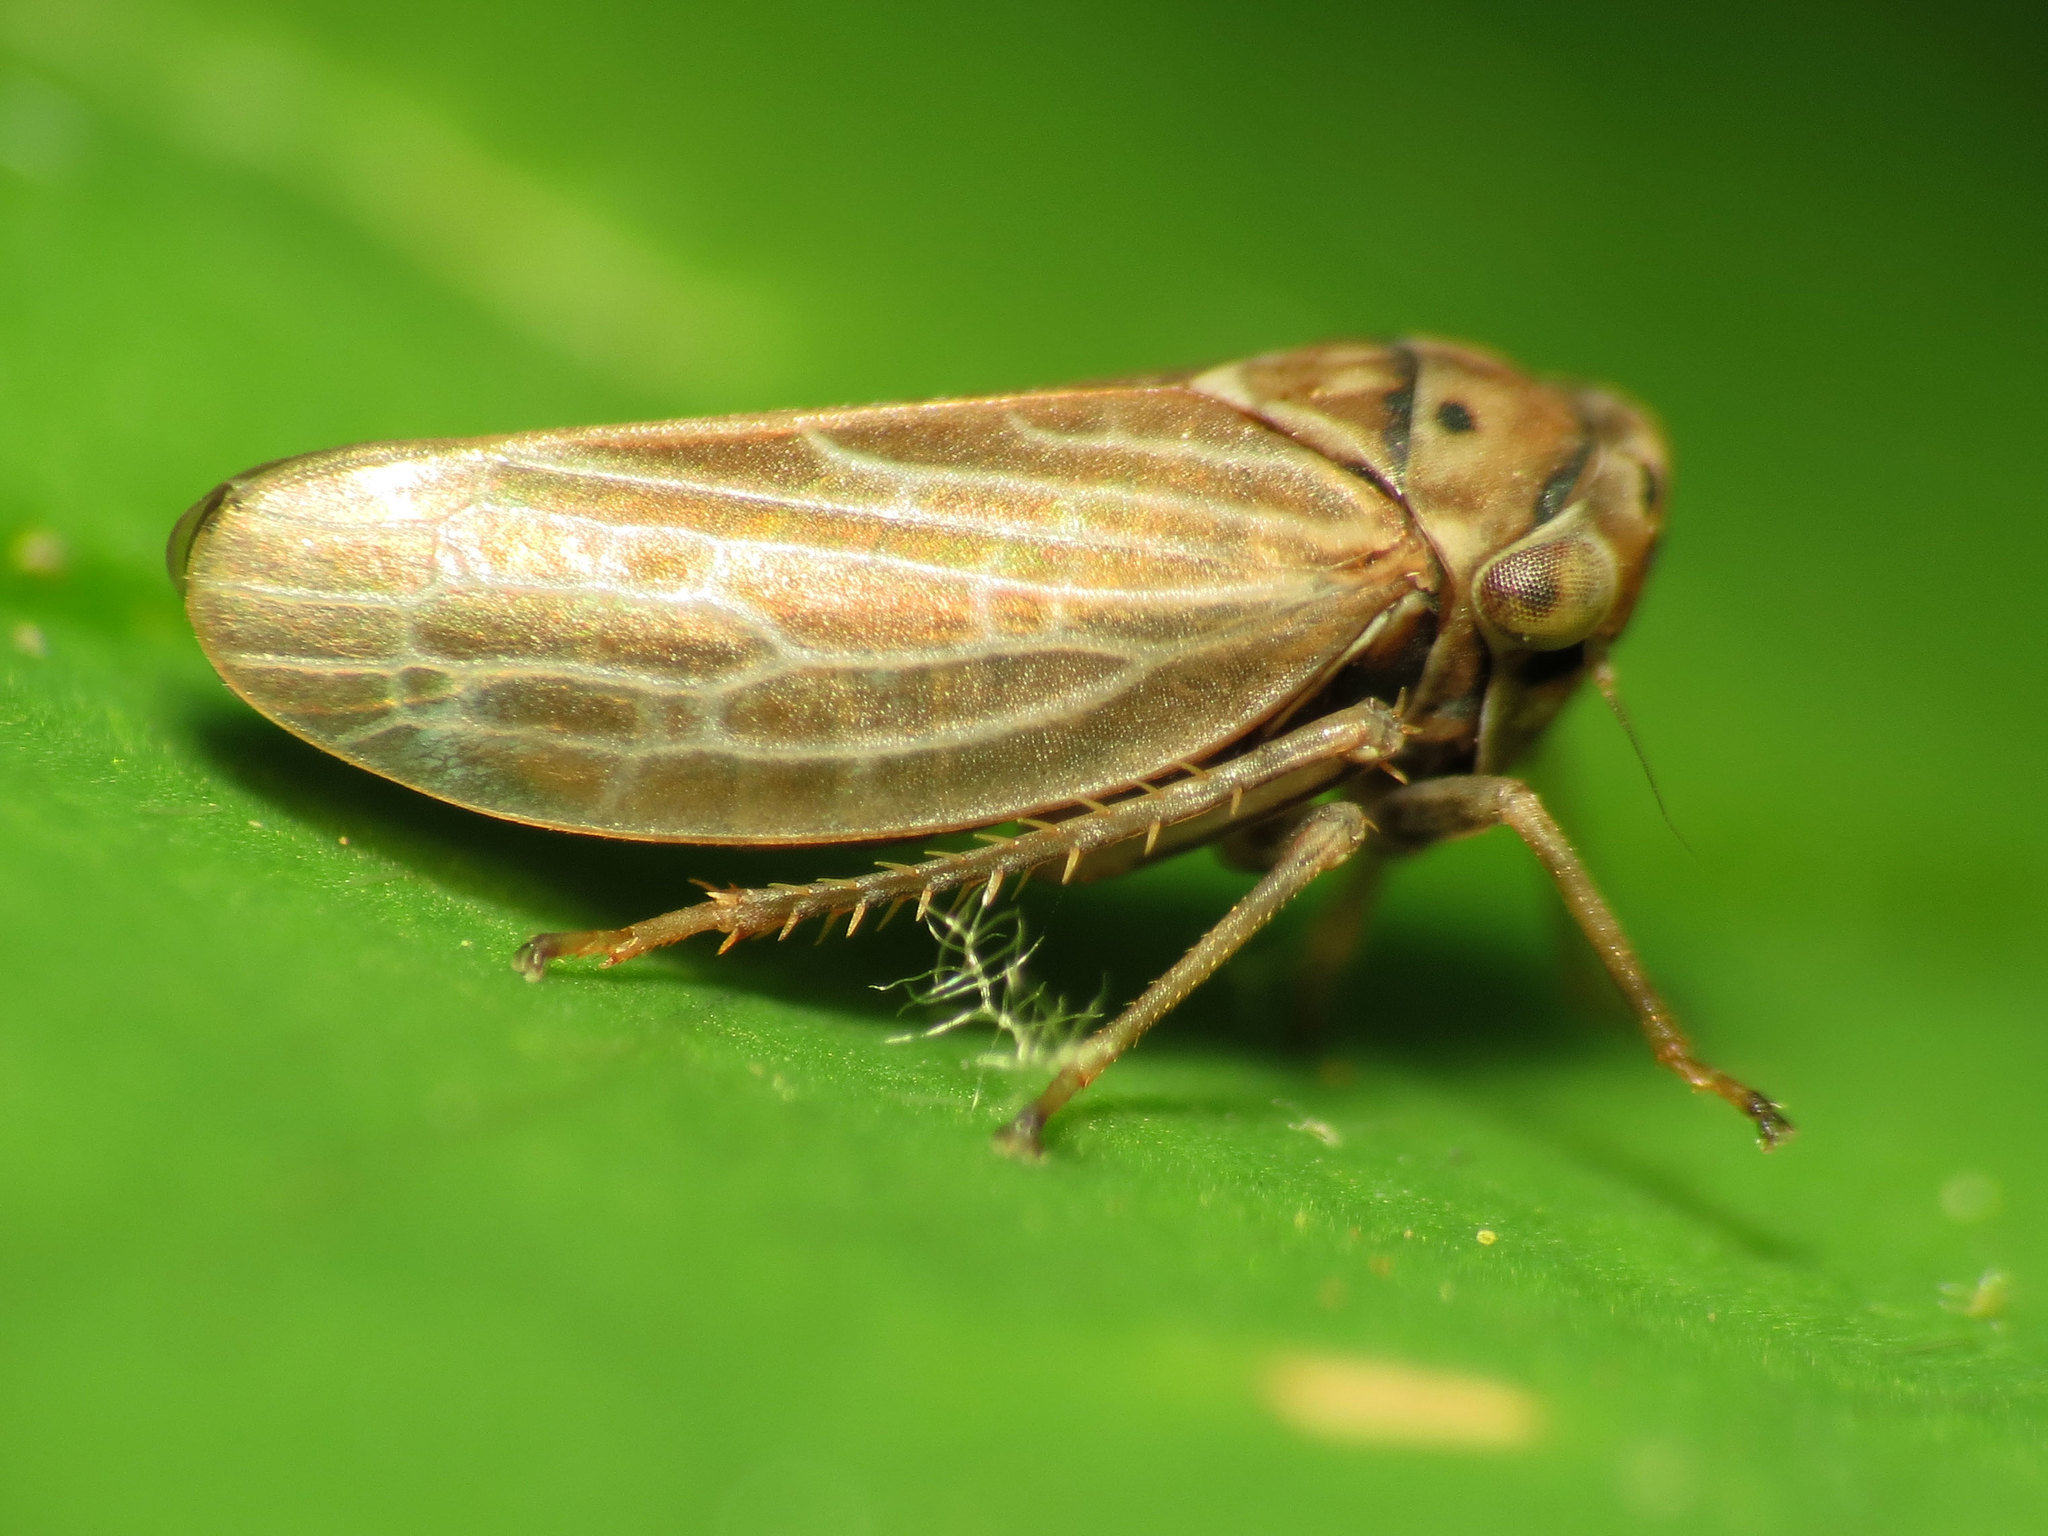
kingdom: Animalia
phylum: Arthropoda
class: Insecta
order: Hemiptera
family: Cicadellidae
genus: Agalliota
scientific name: Agalliota quadripunctata
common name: The four-spotted clover leafhopper
